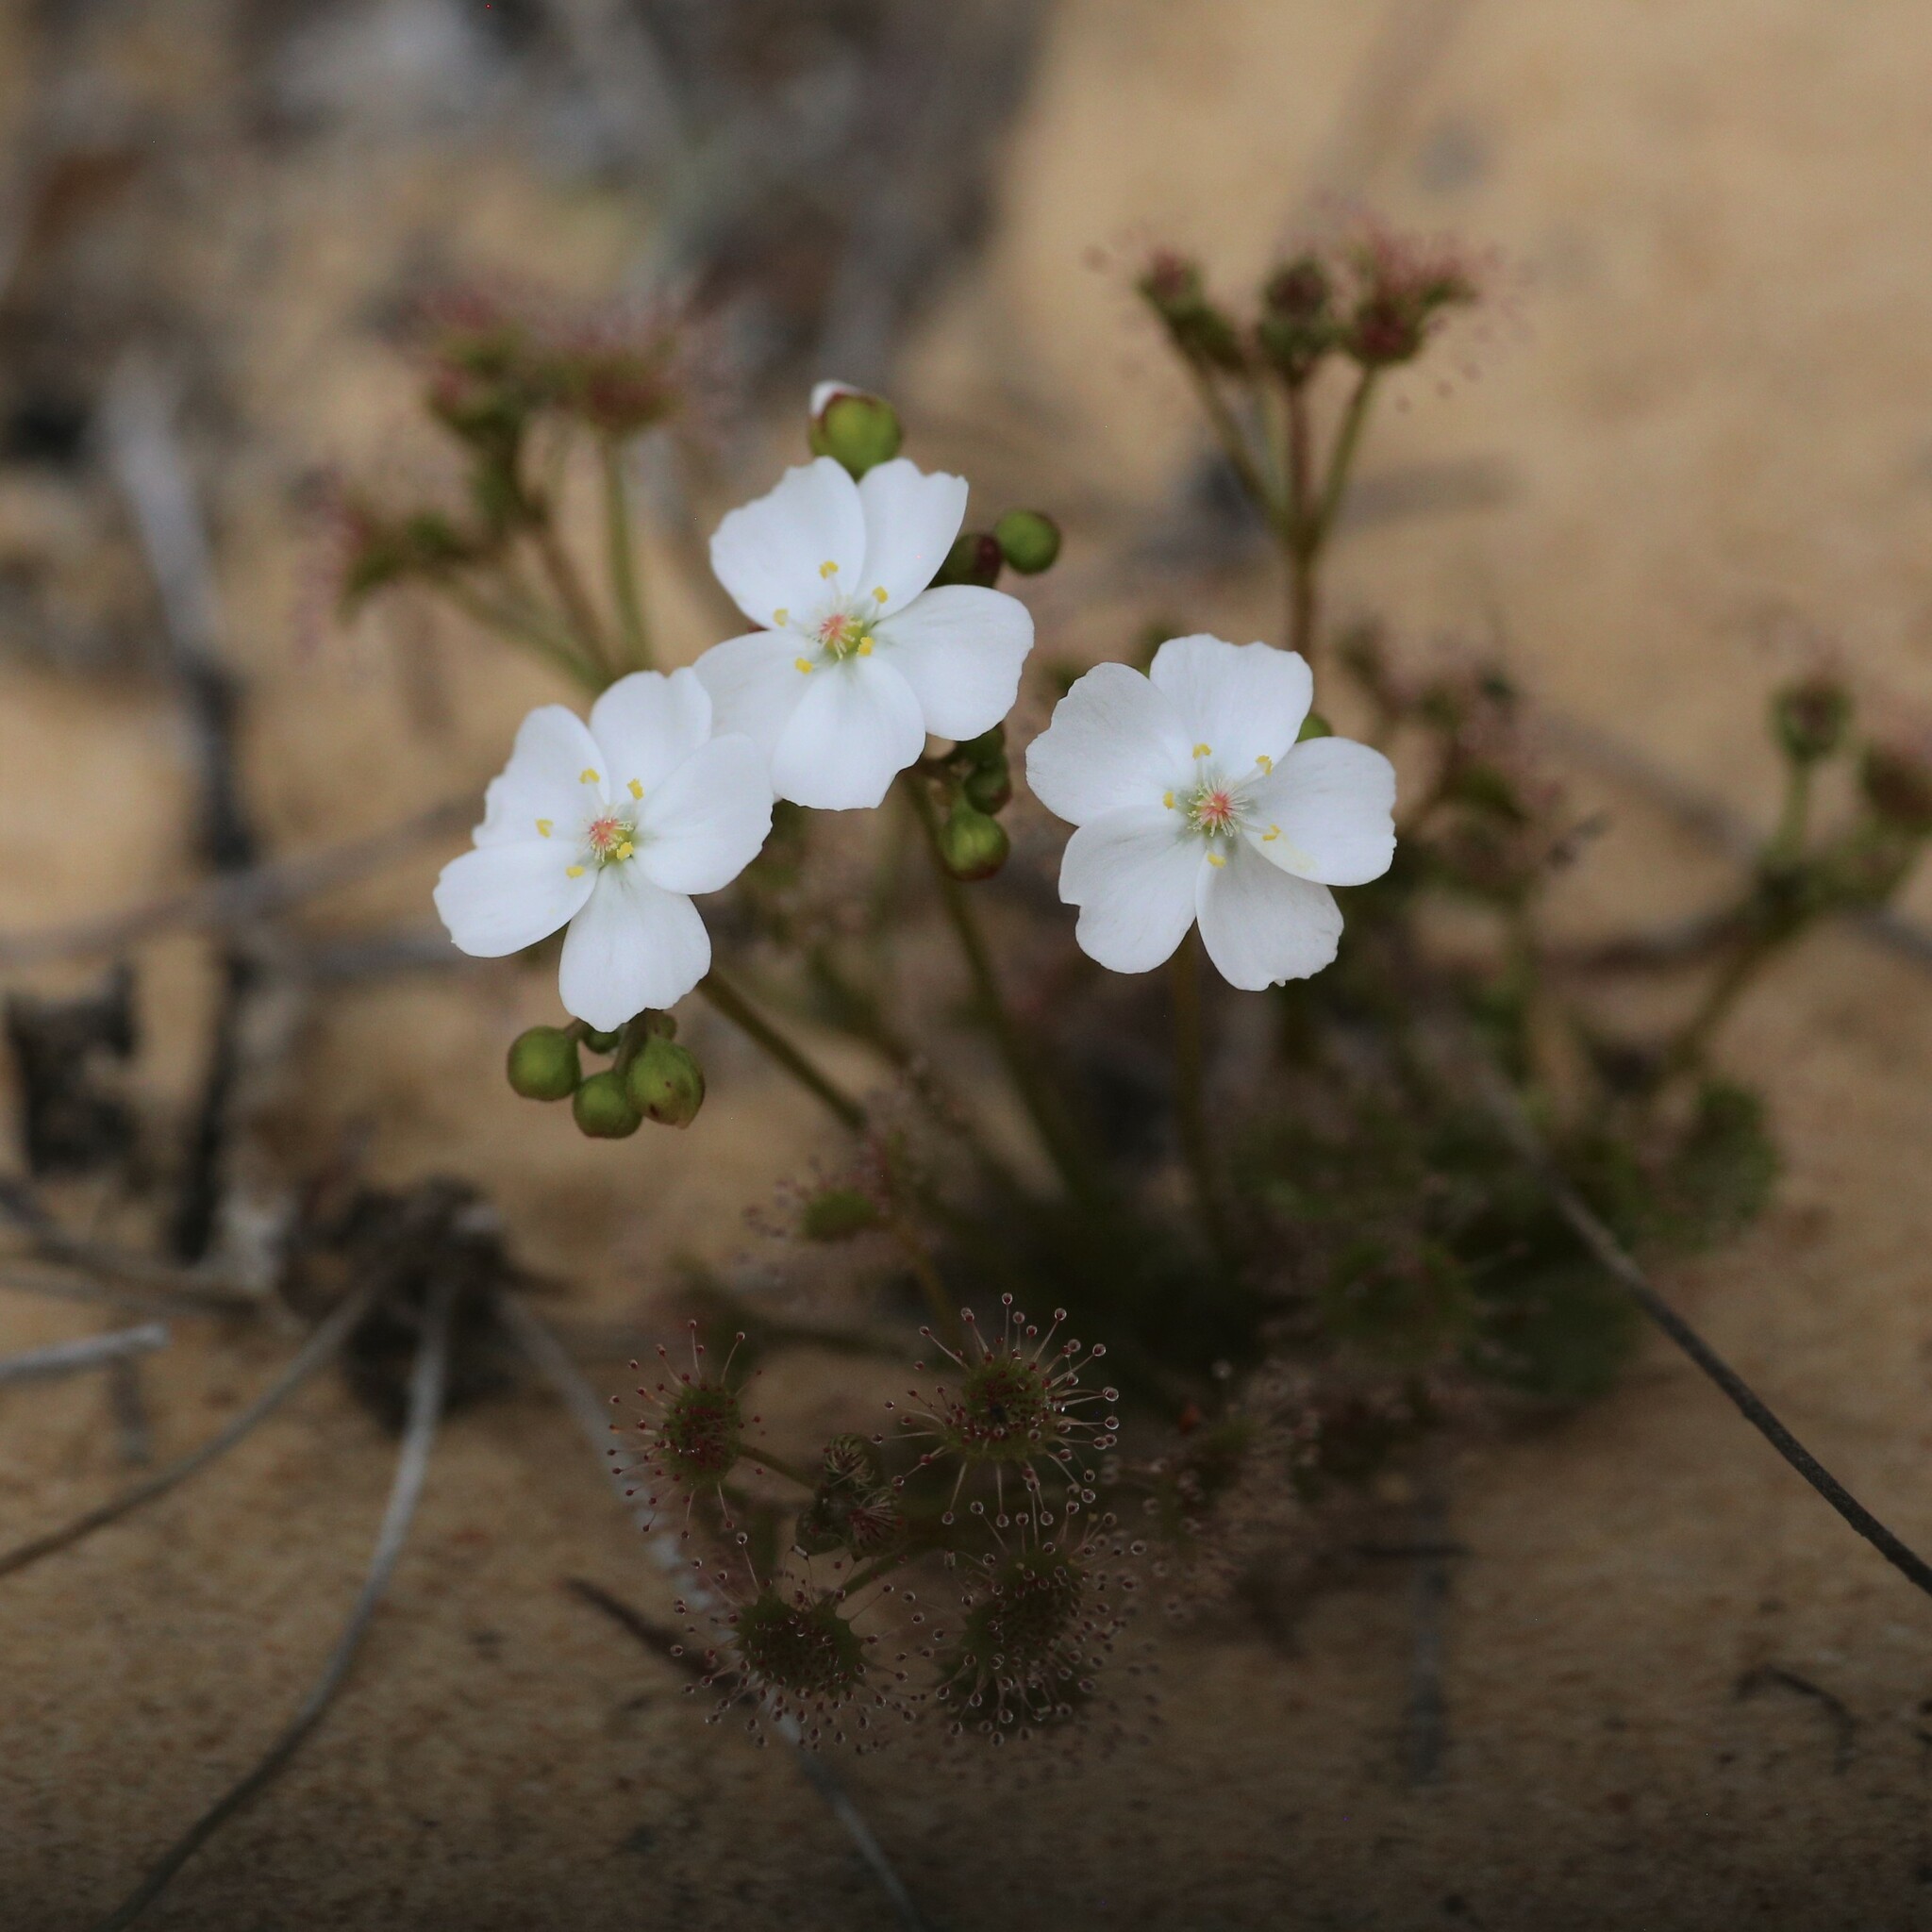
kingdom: Plantae
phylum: Tracheophyta
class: Magnoliopsida
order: Caryophyllales
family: Droseraceae
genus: Drosera
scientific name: Drosera stolonifera
